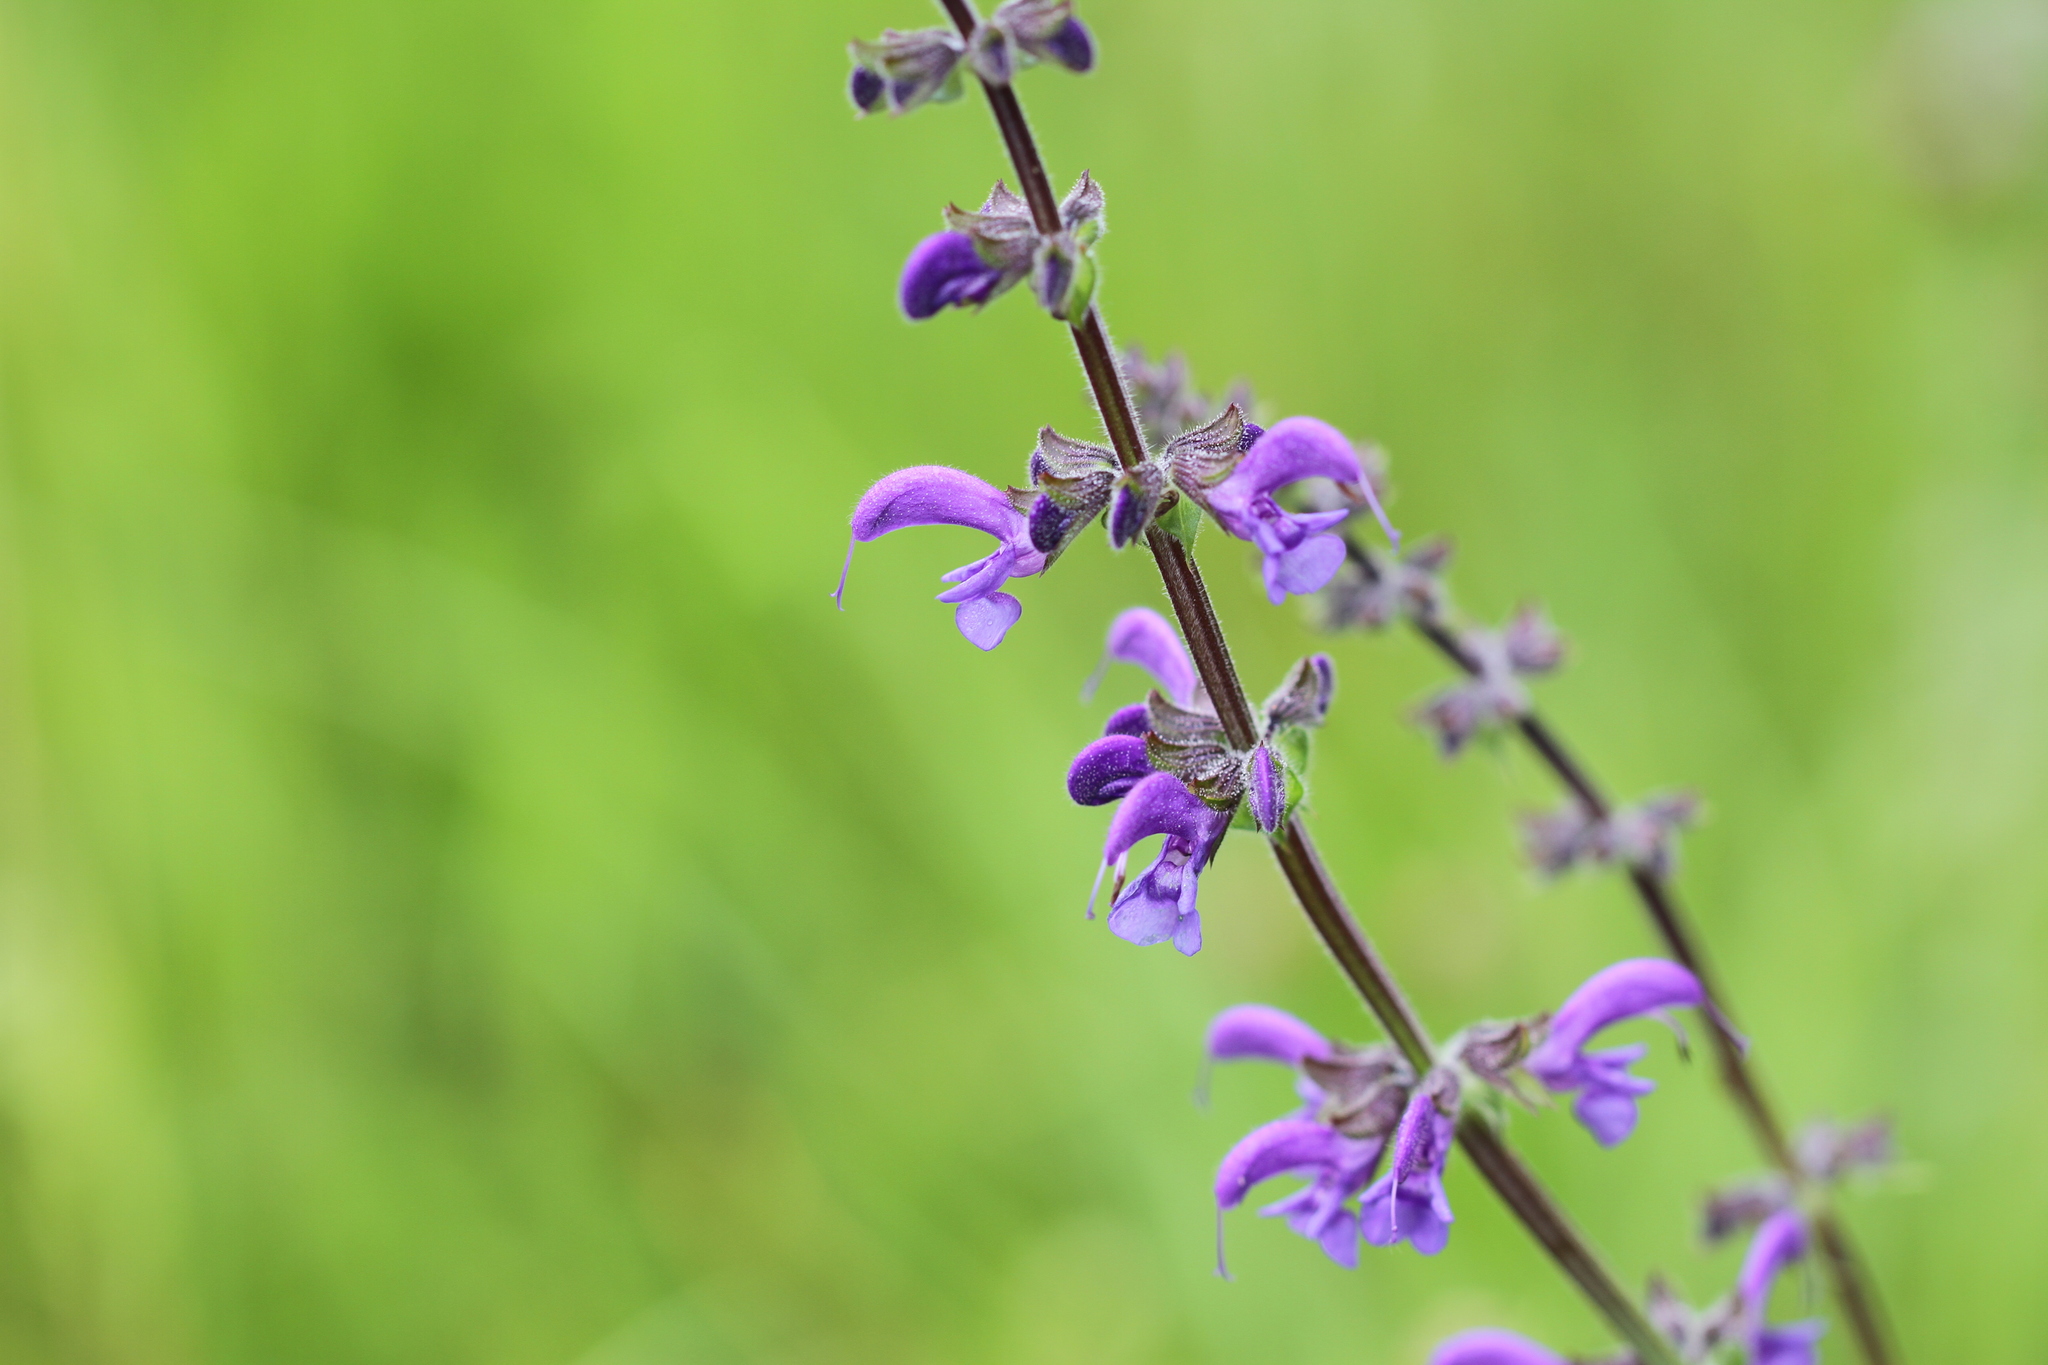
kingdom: Plantae
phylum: Tracheophyta
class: Magnoliopsida
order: Lamiales
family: Lamiaceae
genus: Salvia
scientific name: Salvia pratensis
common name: Meadow sage
